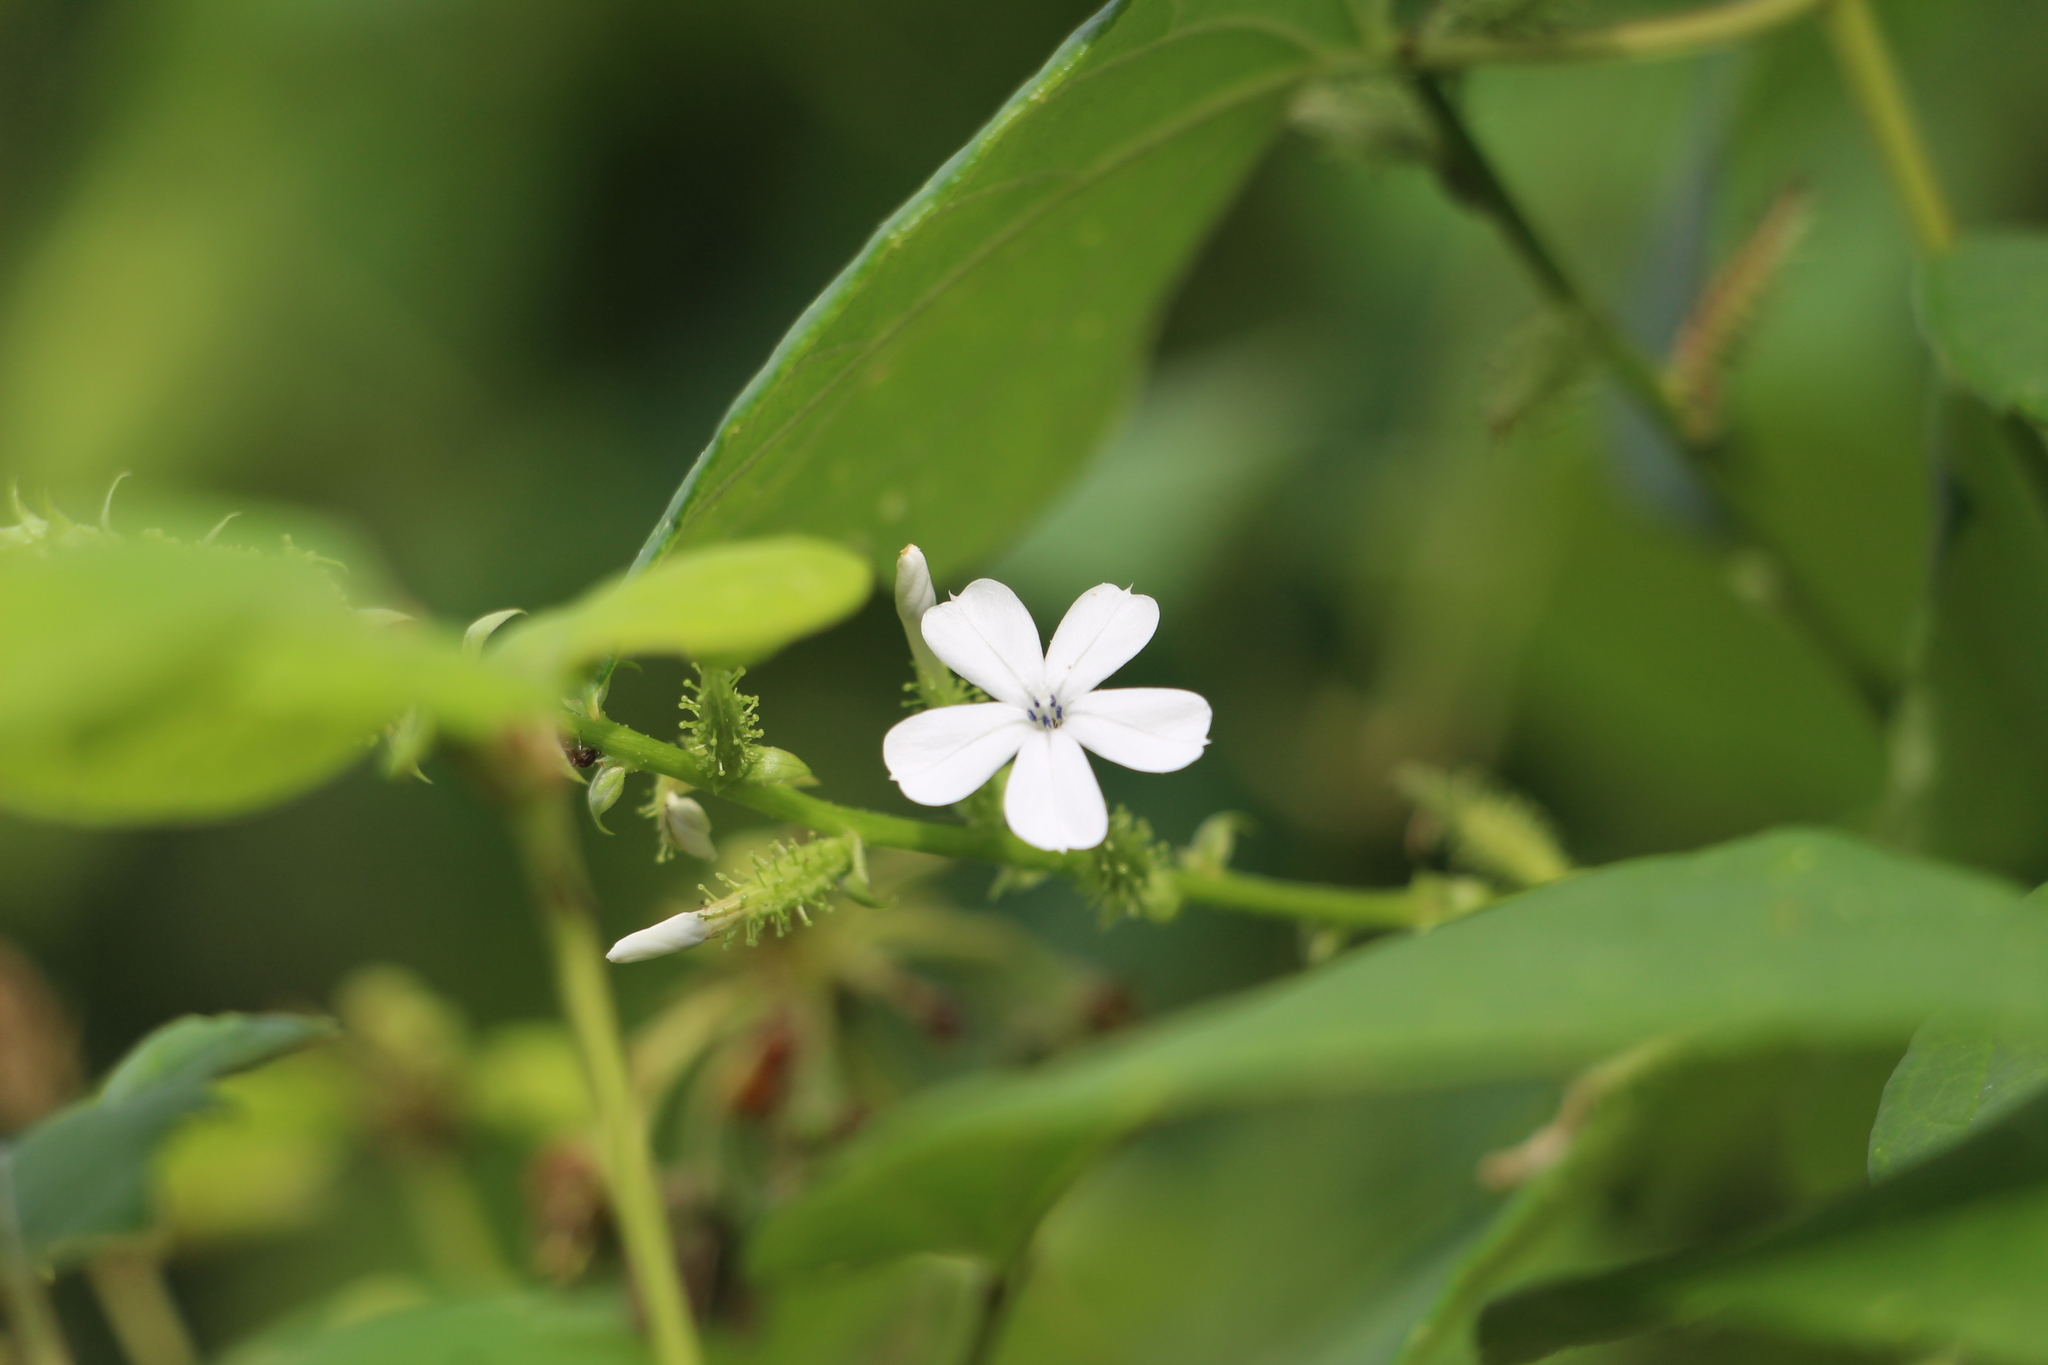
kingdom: Plantae
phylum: Tracheophyta
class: Magnoliopsida
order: Caryophyllales
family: Plumbaginaceae
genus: Plumbago
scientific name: Plumbago zeylanica
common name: Doctorbush
